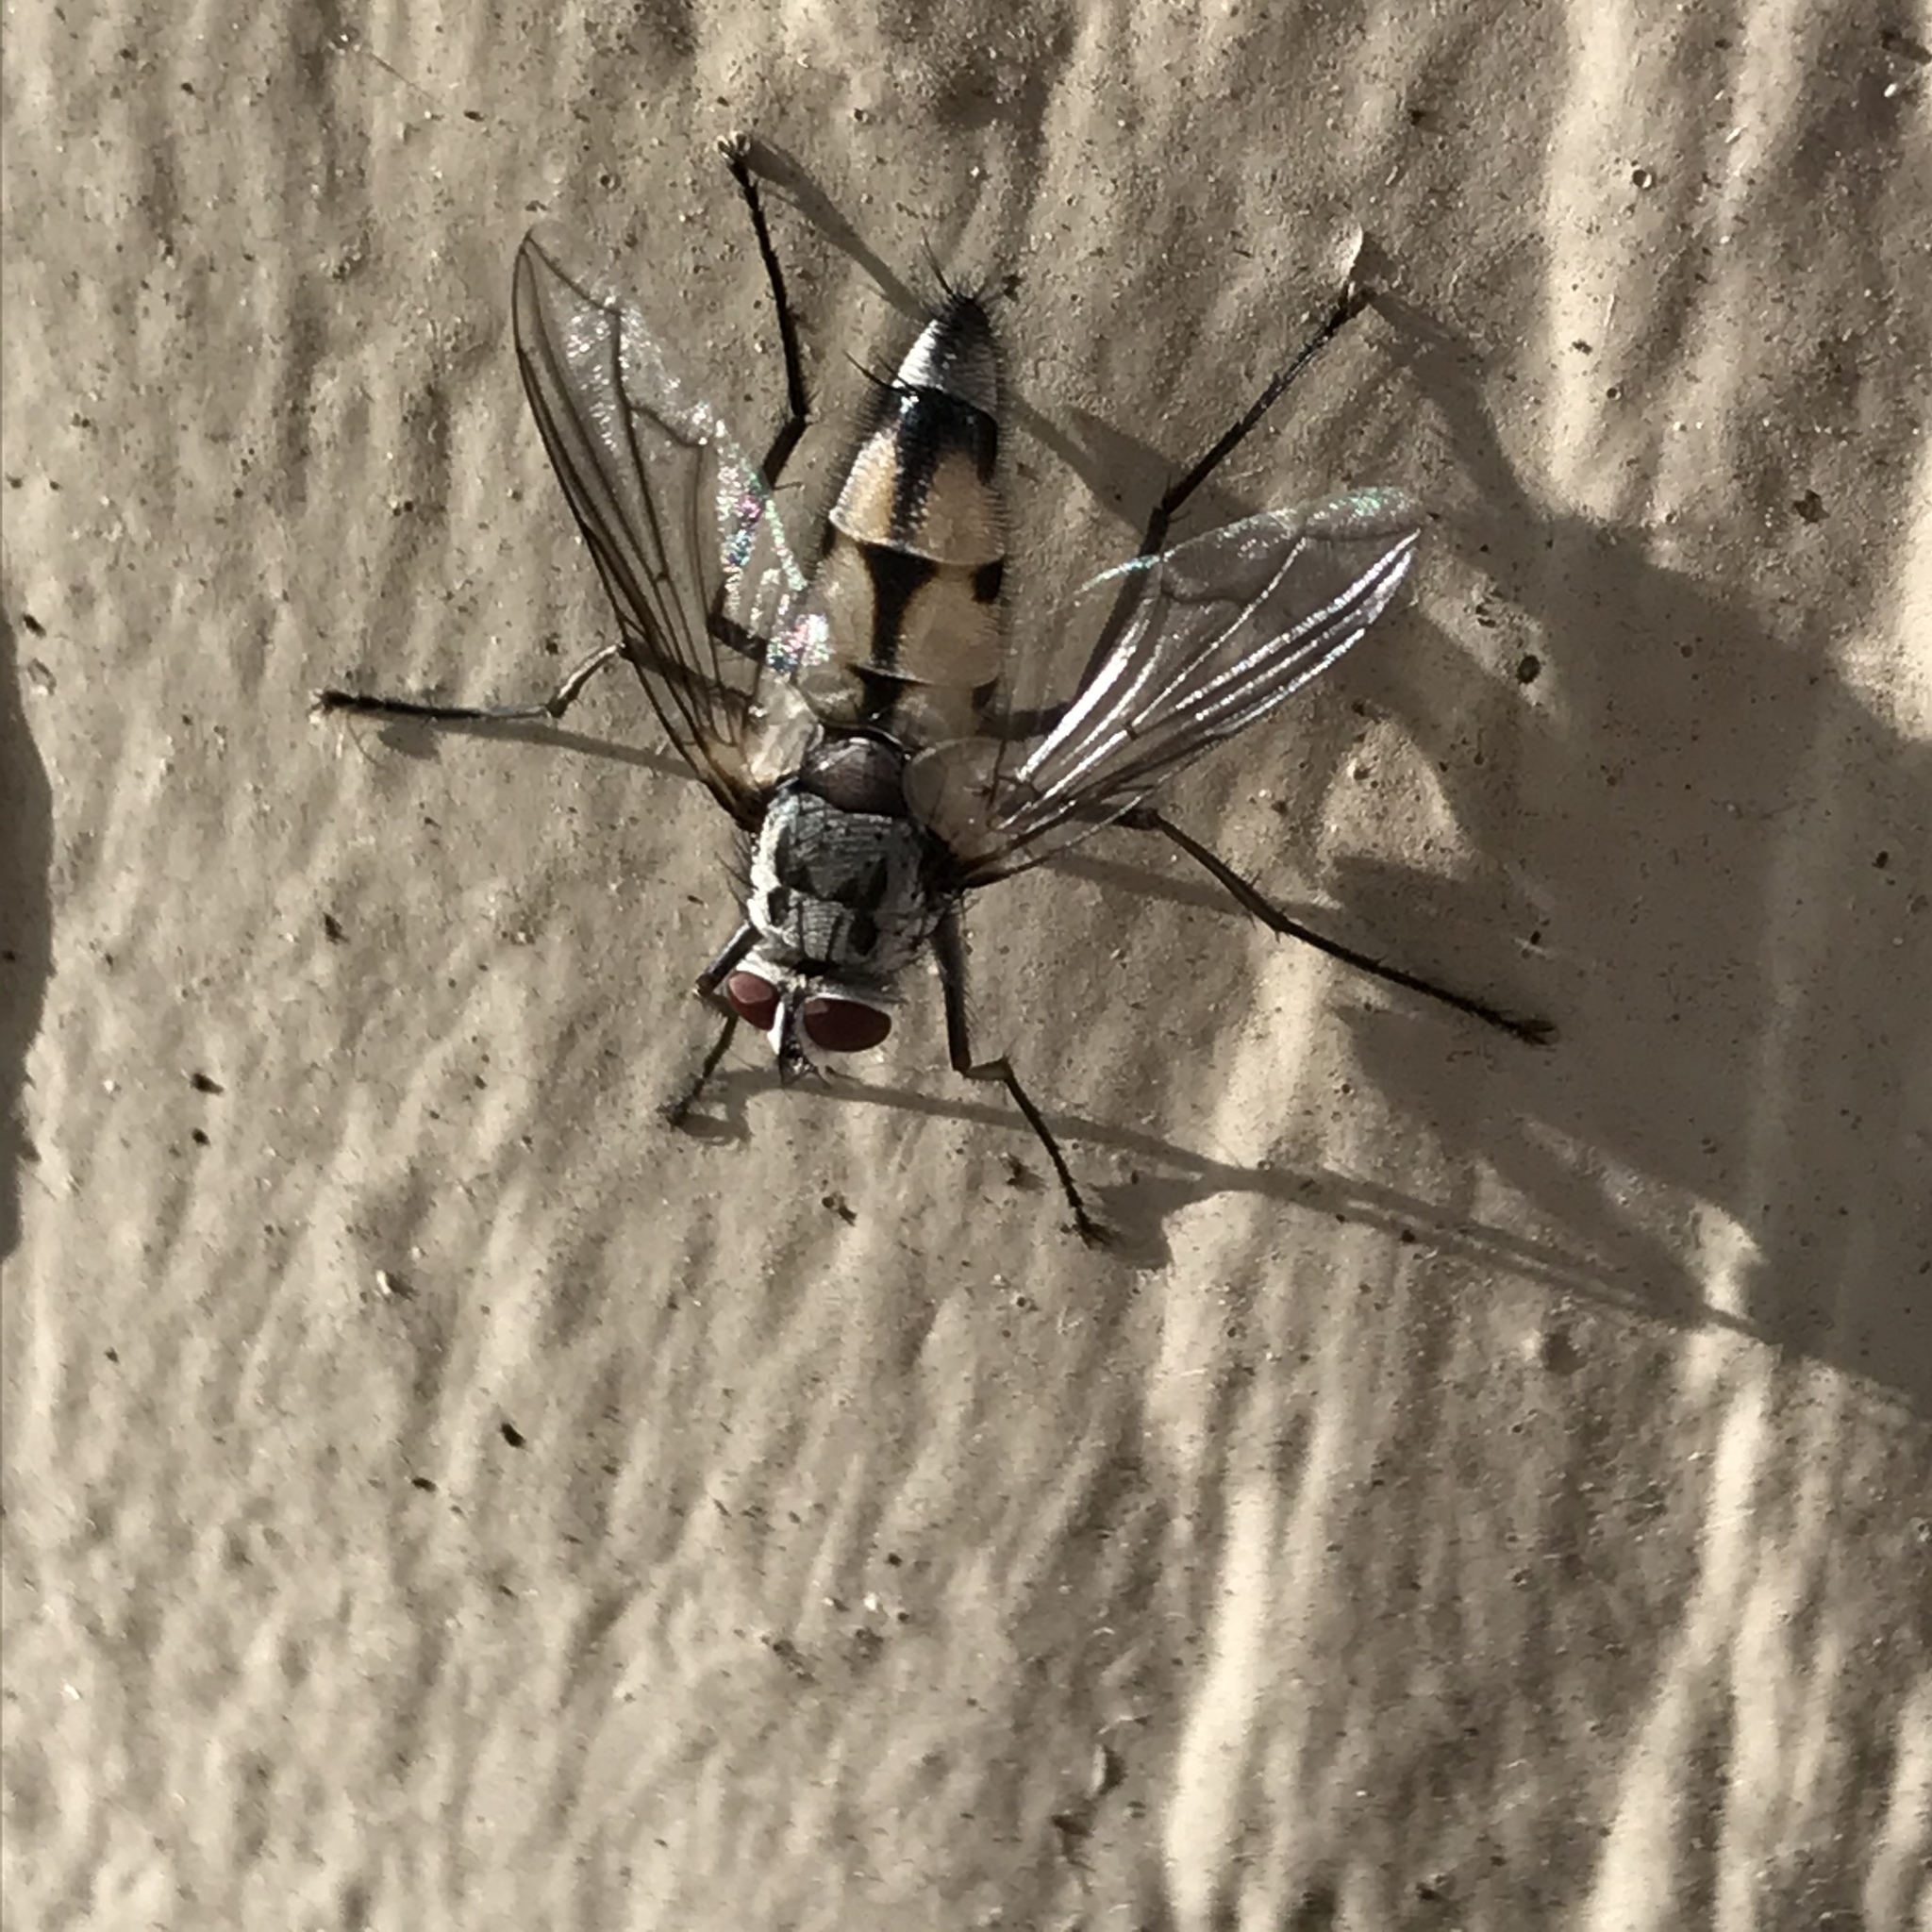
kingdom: Animalia
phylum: Arthropoda
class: Insecta
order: Diptera
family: Tachinidae
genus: Zelia
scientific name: Zelia vertebrata
